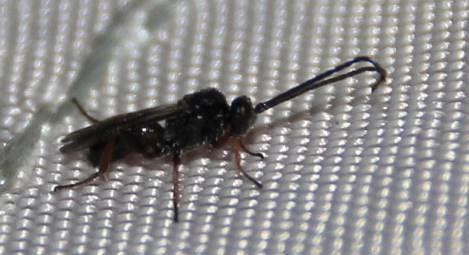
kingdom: Animalia
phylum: Arthropoda
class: Insecta
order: Hymenoptera
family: Braconidae
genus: Microplitis
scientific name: Microplitis
